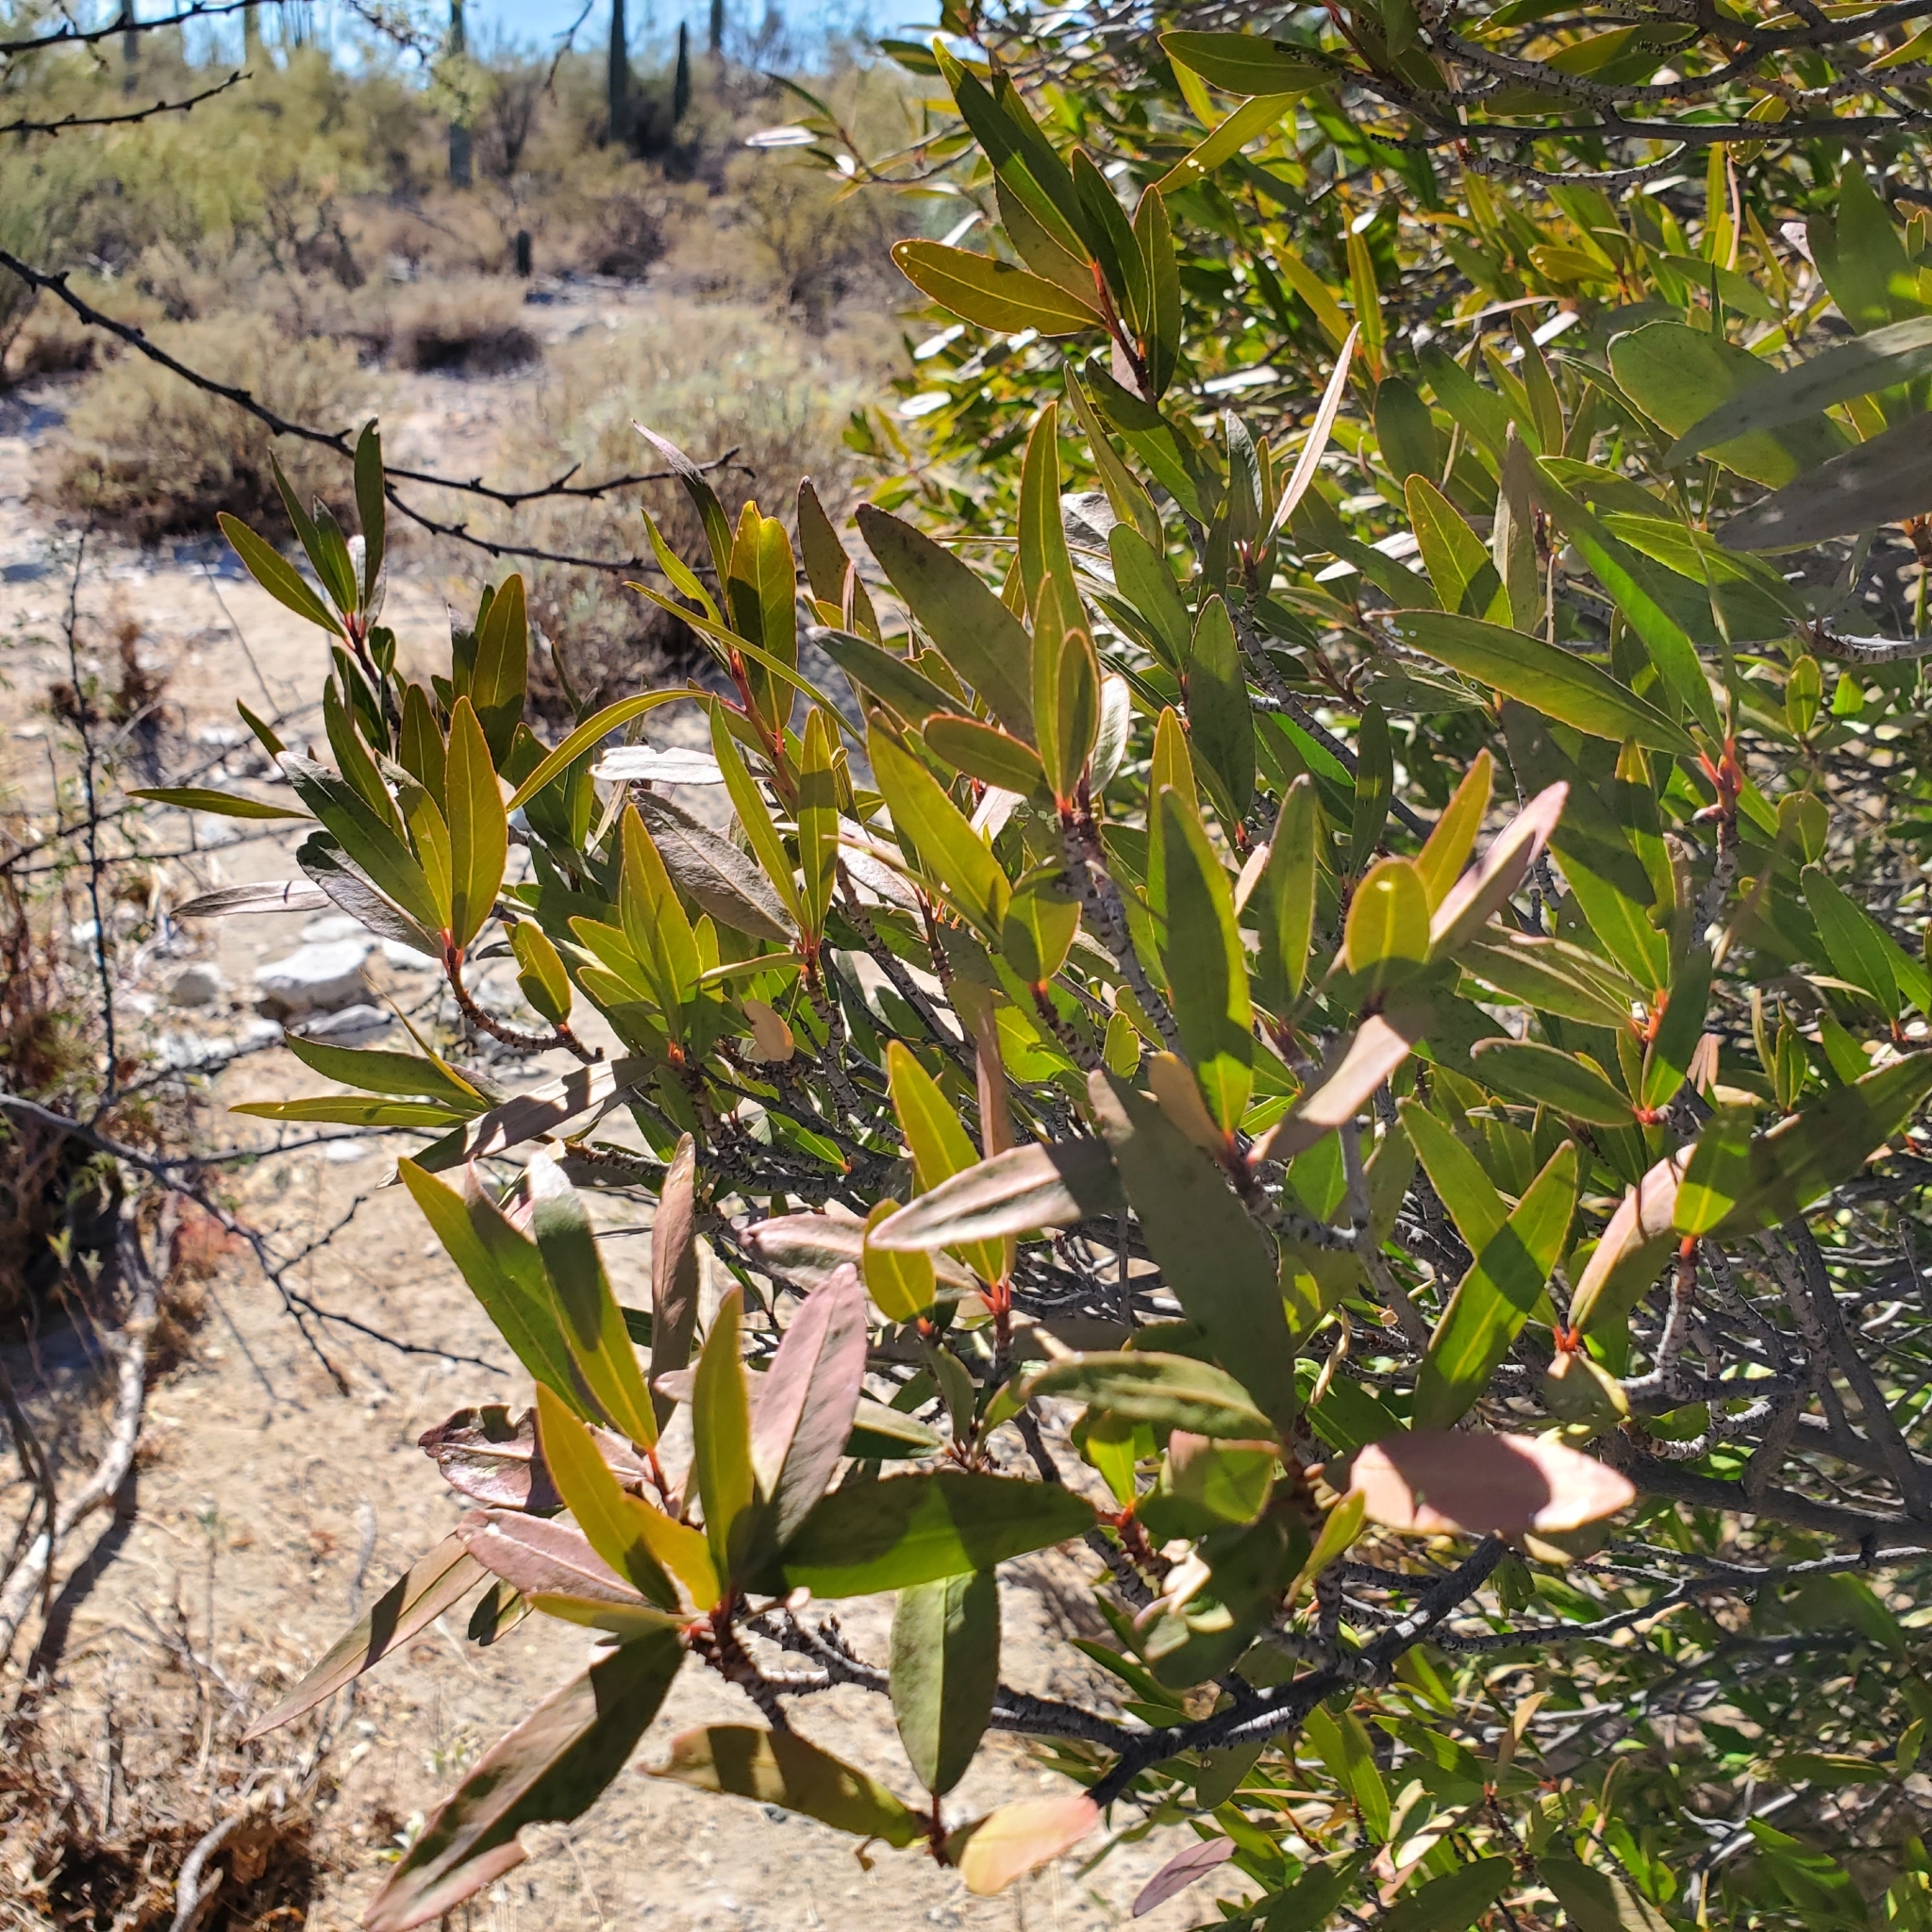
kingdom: Plantae
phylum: Tracheophyta
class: Magnoliopsida
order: Malpighiales
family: Euphorbiaceae
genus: Pleradenophora
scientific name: Pleradenophora bilocularis
